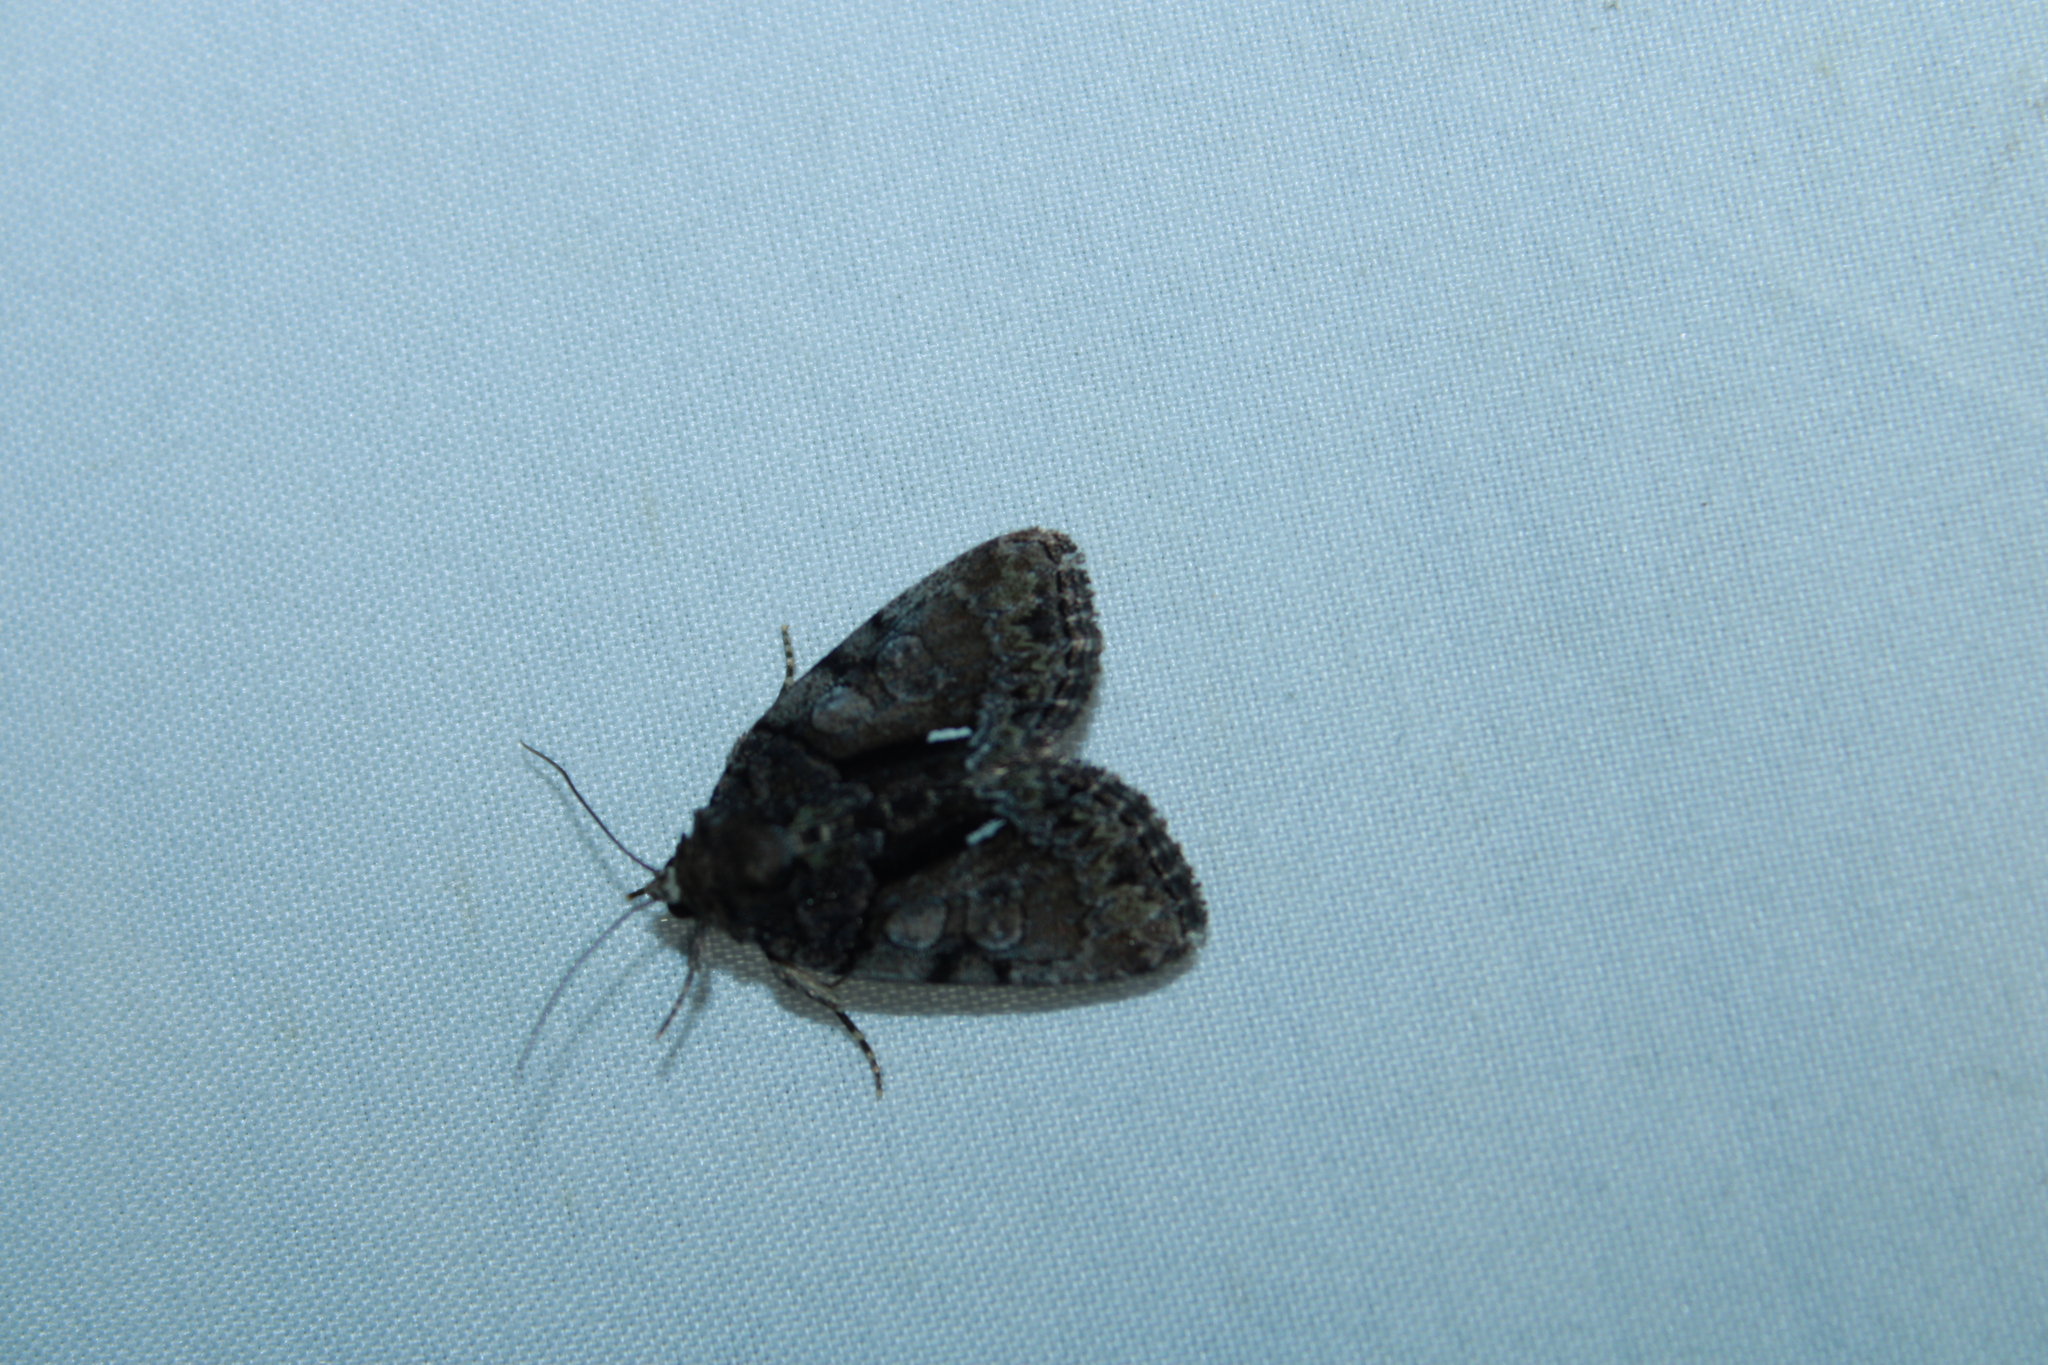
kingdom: Animalia
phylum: Arthropoda
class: Insecta
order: Lepidoptera
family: Noctuidae
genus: Chytonix
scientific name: Chytonix palliatricula
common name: Cloaked marvel
